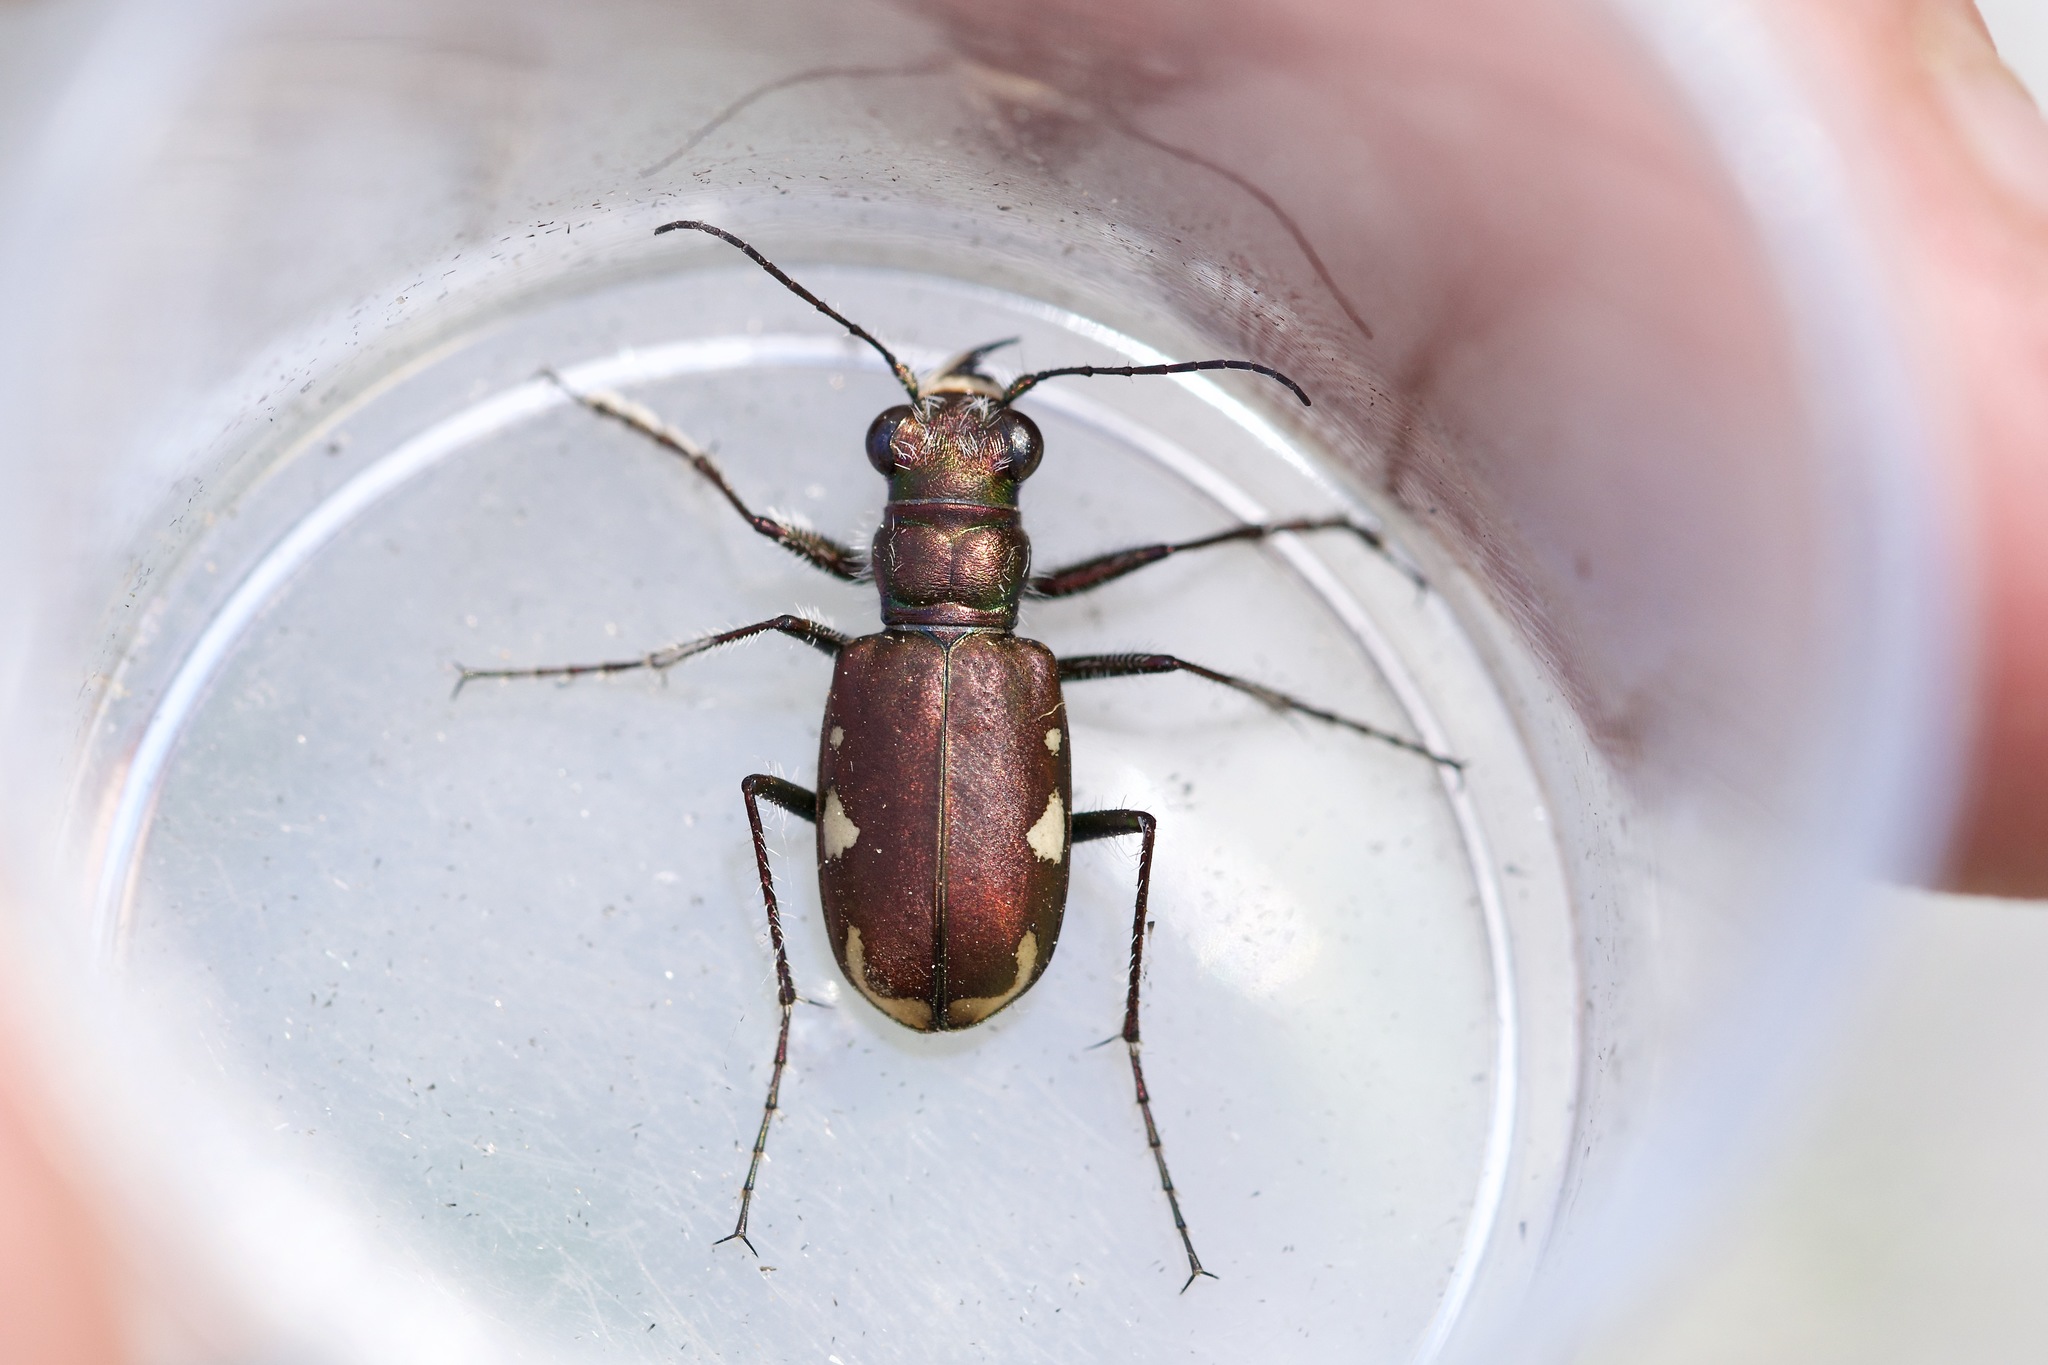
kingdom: Animalia
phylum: Arthropoda
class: Insecta
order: Coleoptera
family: Carabidae
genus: Cicindela
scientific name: Cicindela scutellaris
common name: Festive tiger beetle
